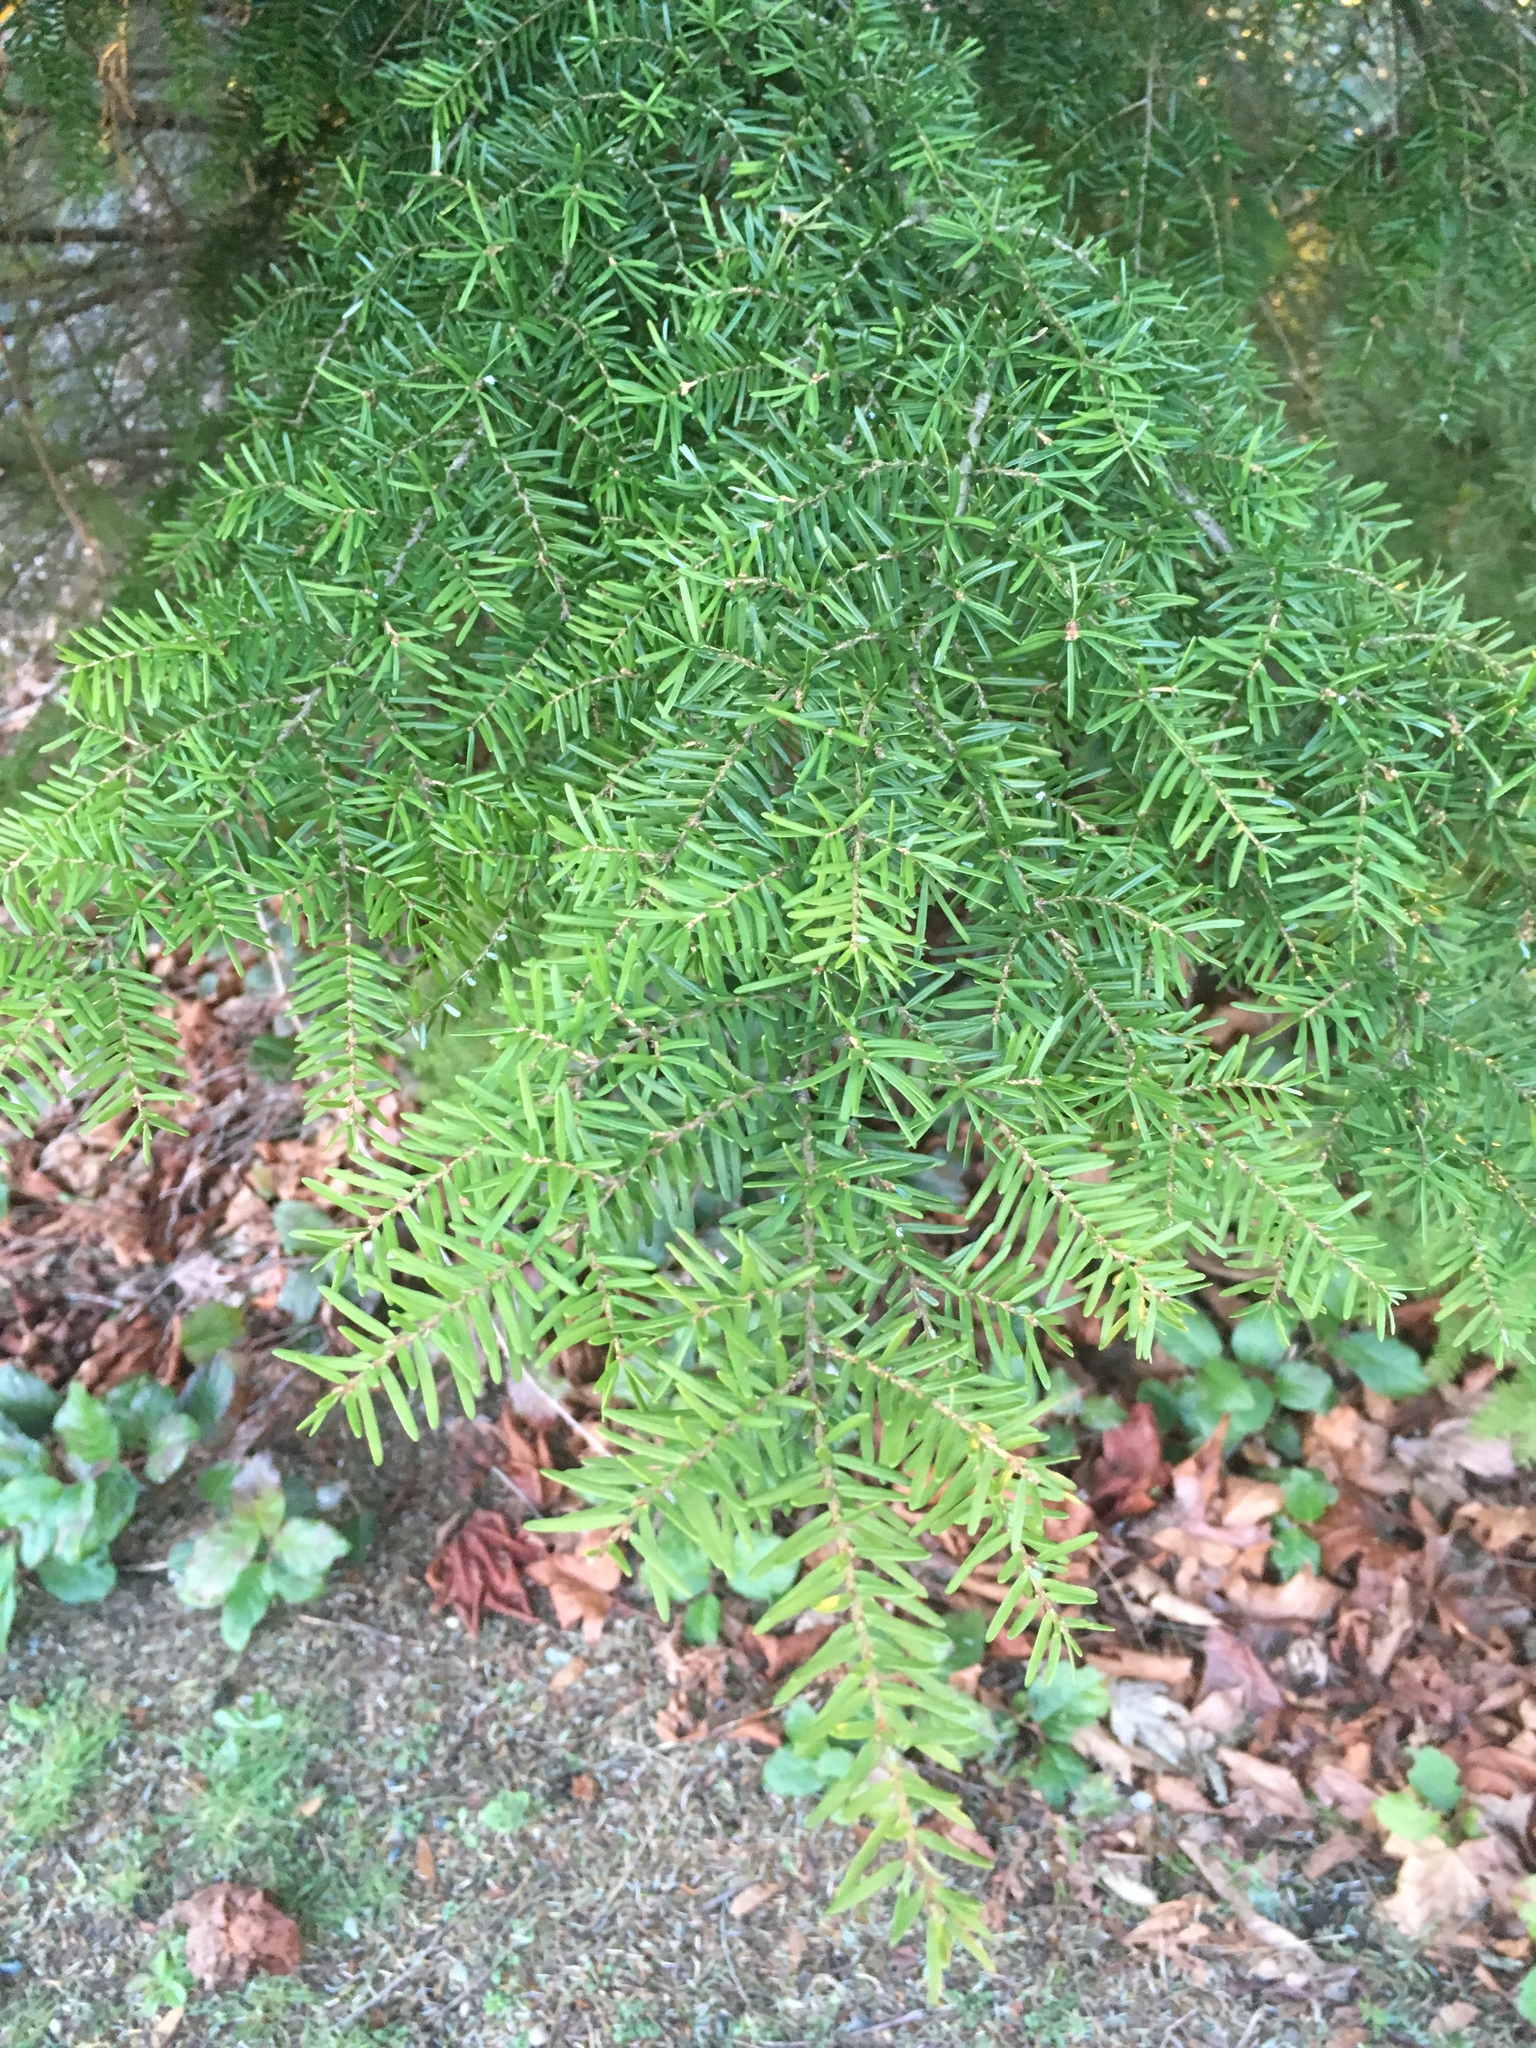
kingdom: Plantae
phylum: Tracheophyta
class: Pinopsida
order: Pinales
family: Pinaceae
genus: Tsuga
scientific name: Tsuga heterophylla
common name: Western hemlock
